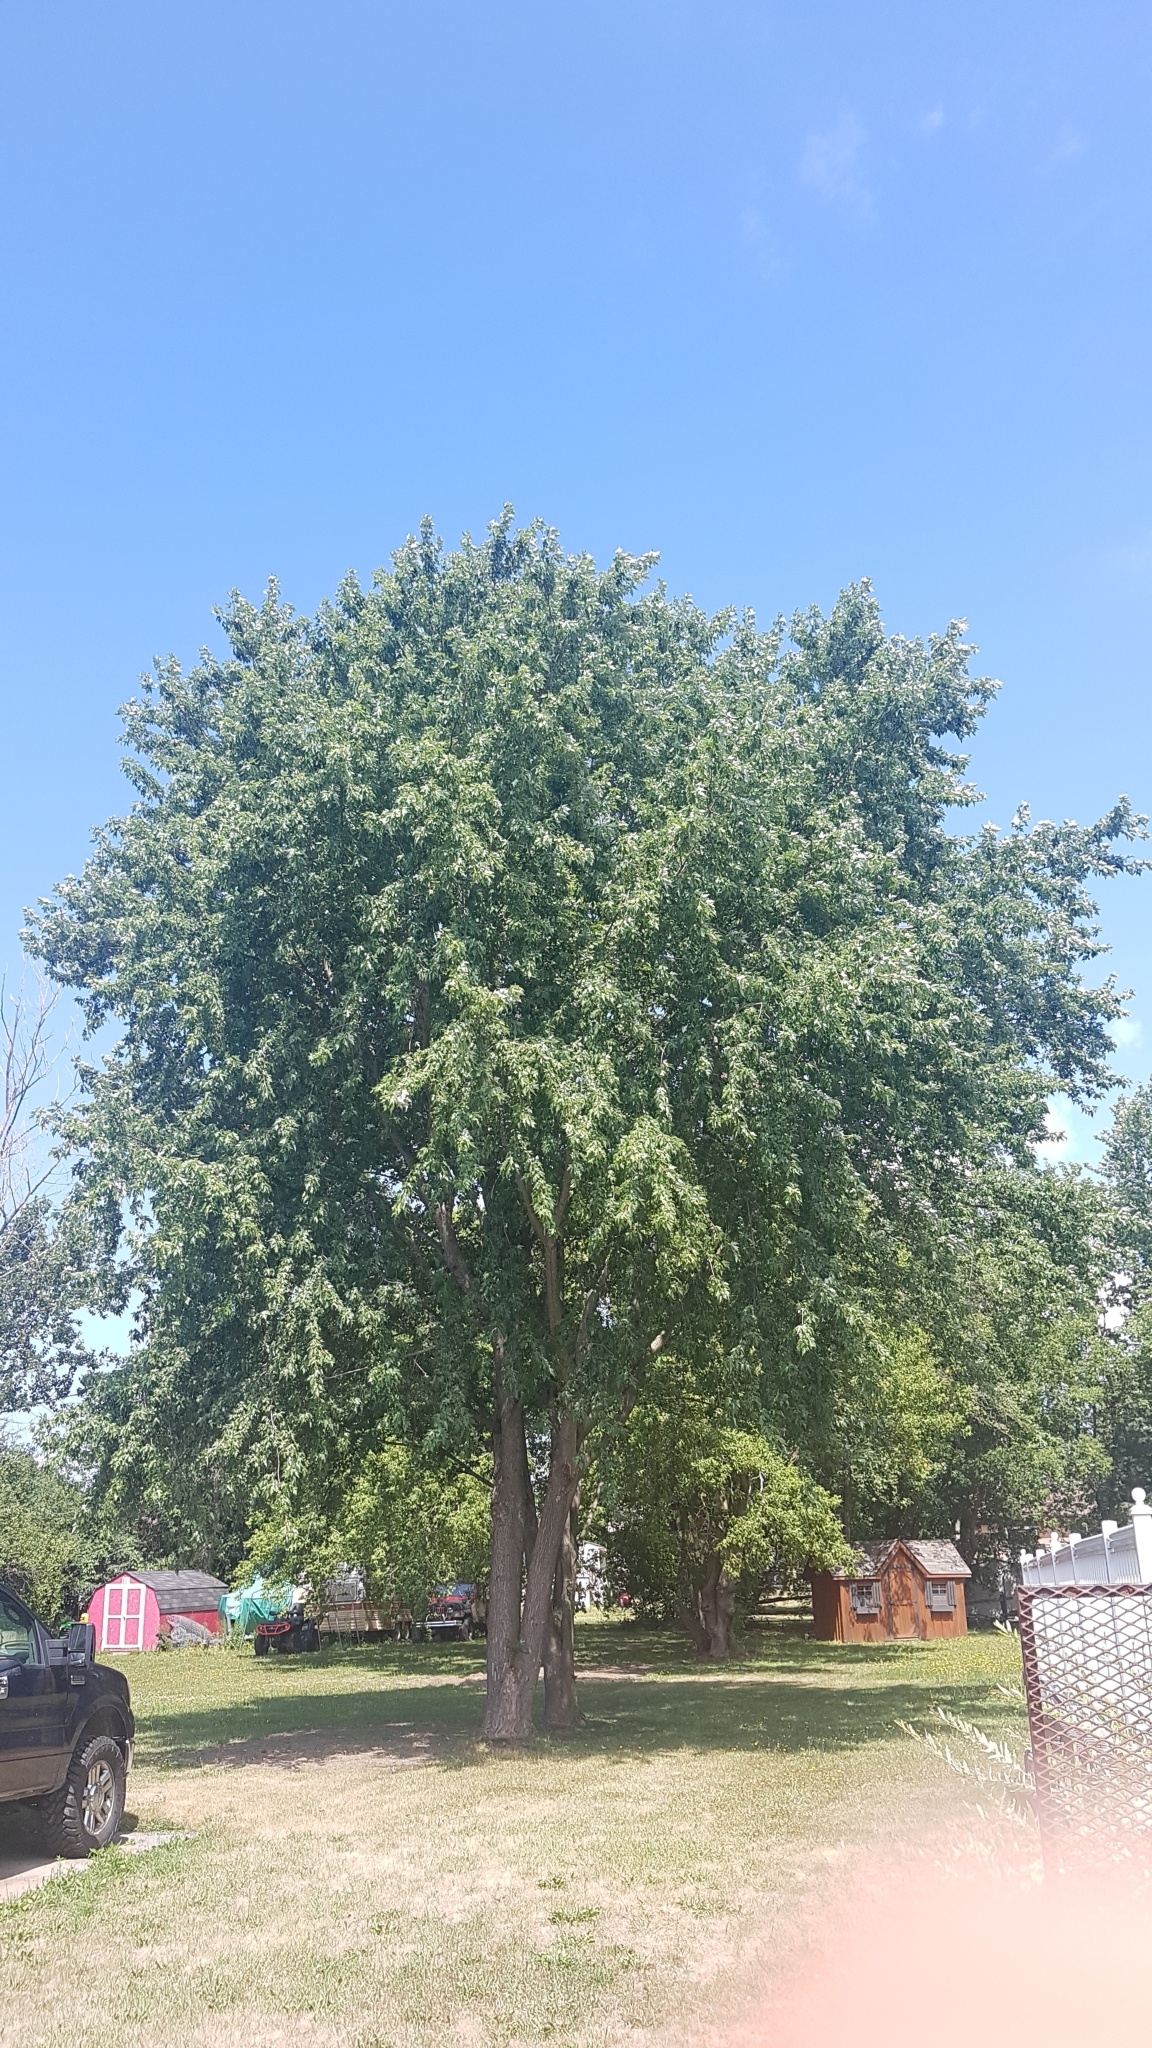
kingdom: Plantae
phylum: Tracheophyta
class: Magnoliopsida
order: Sapindales
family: Sapindaceae
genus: Acer
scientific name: Acer saccharinum
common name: Silver maple
